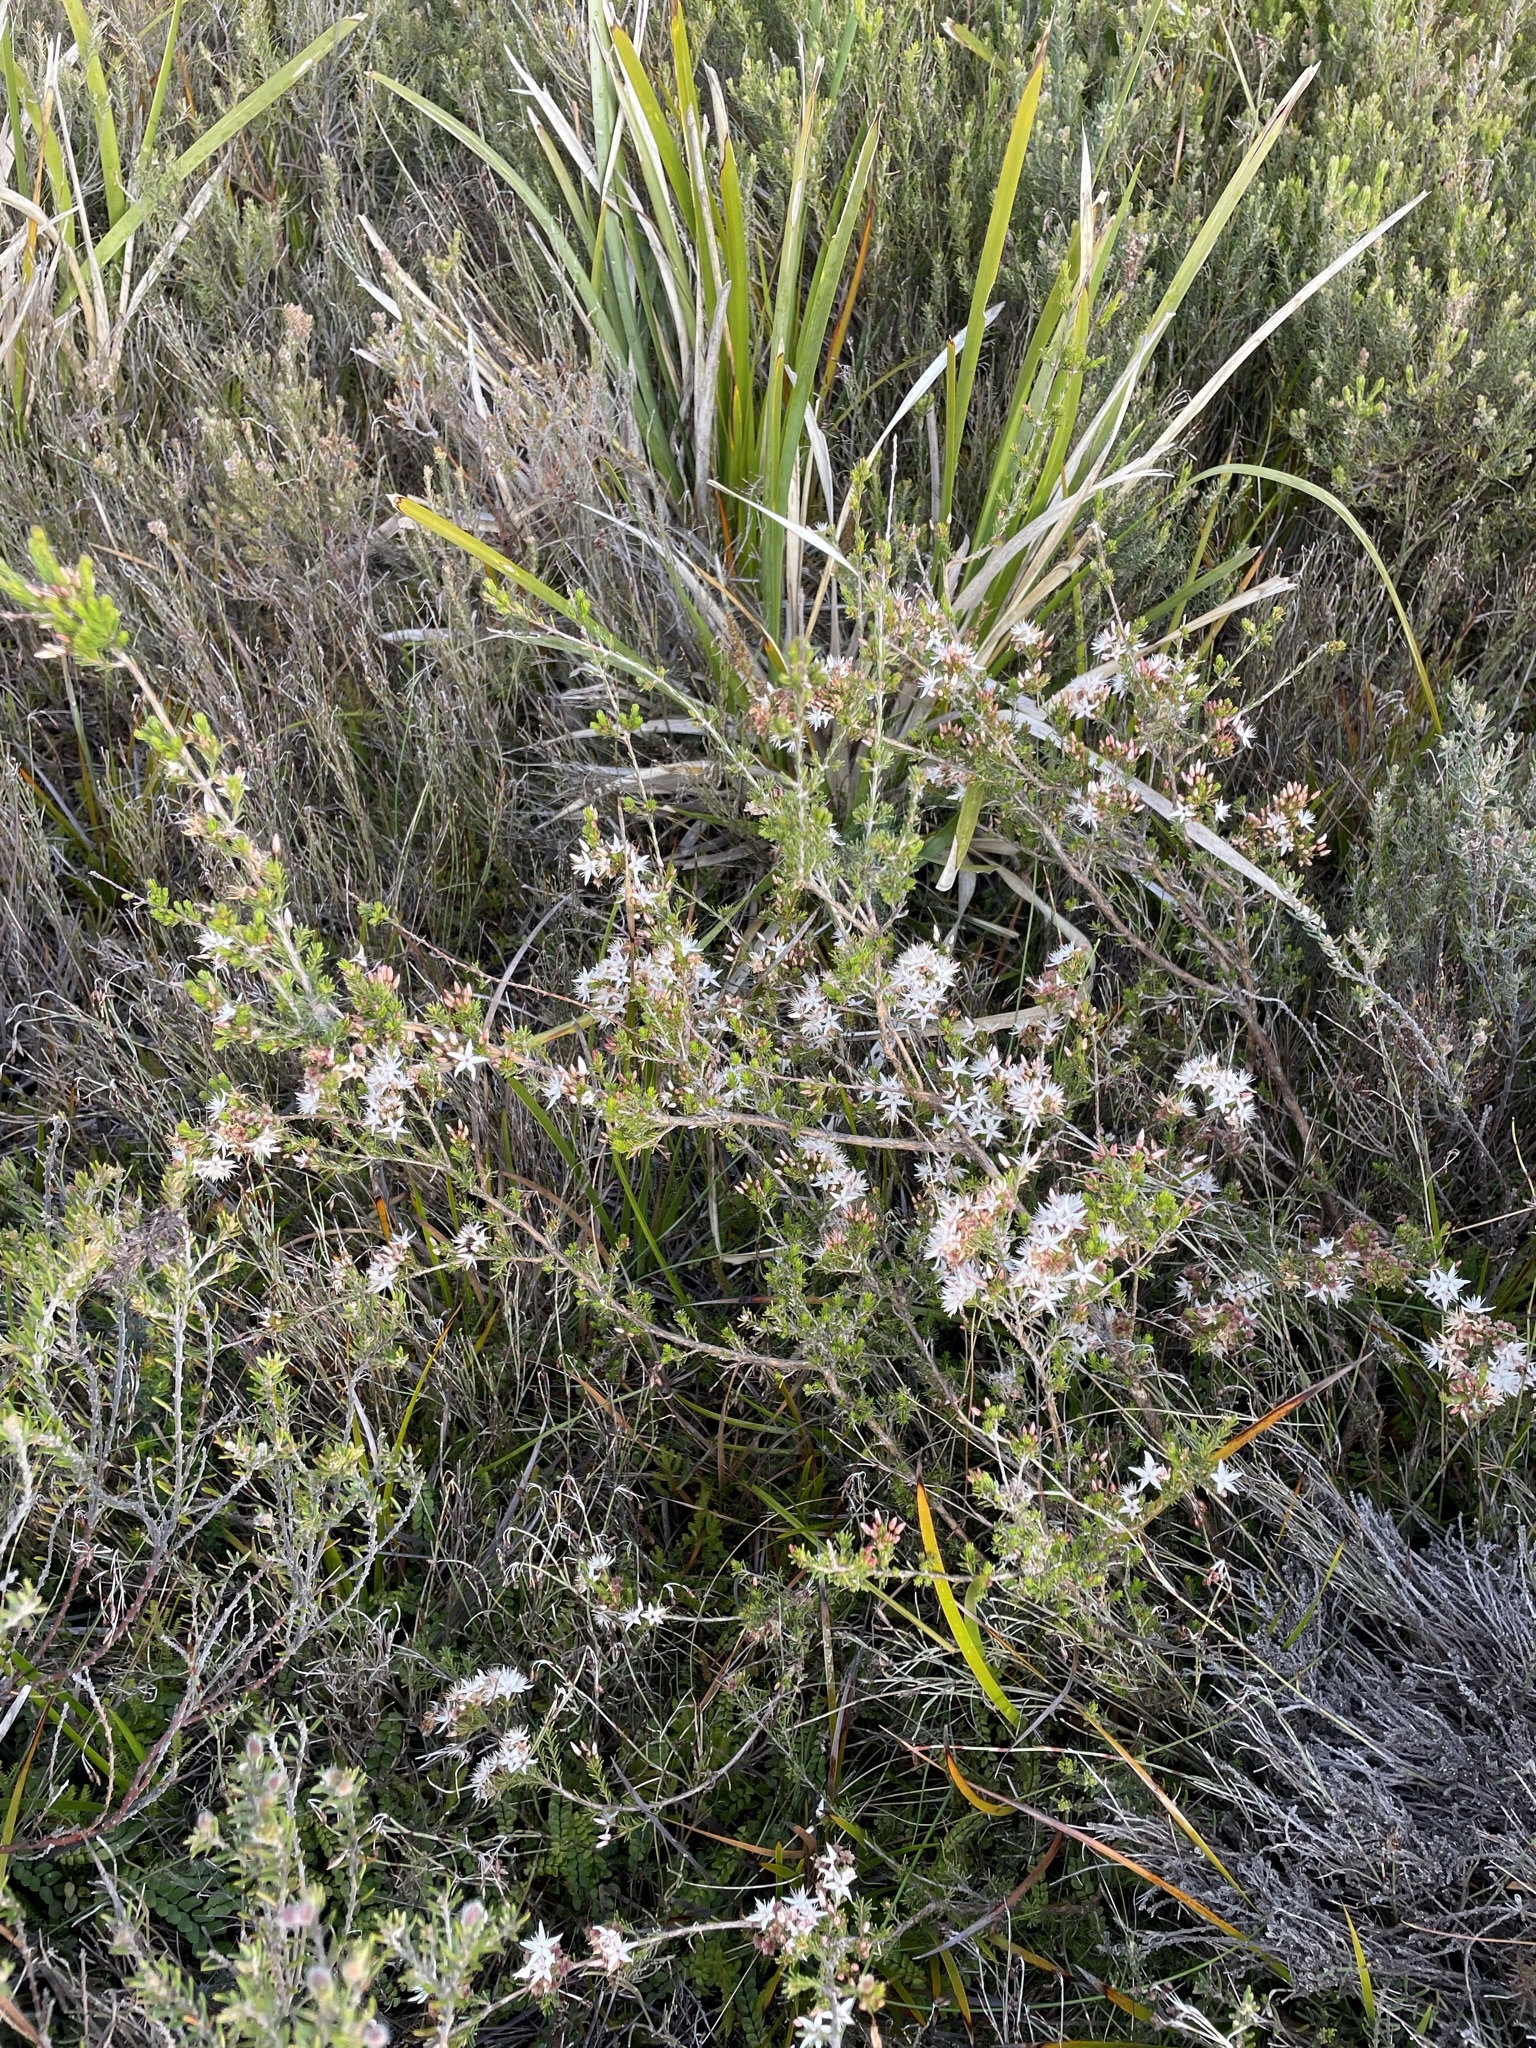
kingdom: Plantae
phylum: Tracheophyta
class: Magnoliopsida
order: Myrtales
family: Myrtaceae
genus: Calytrix
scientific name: Calytrix tetragona
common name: Common fringe myrtle
